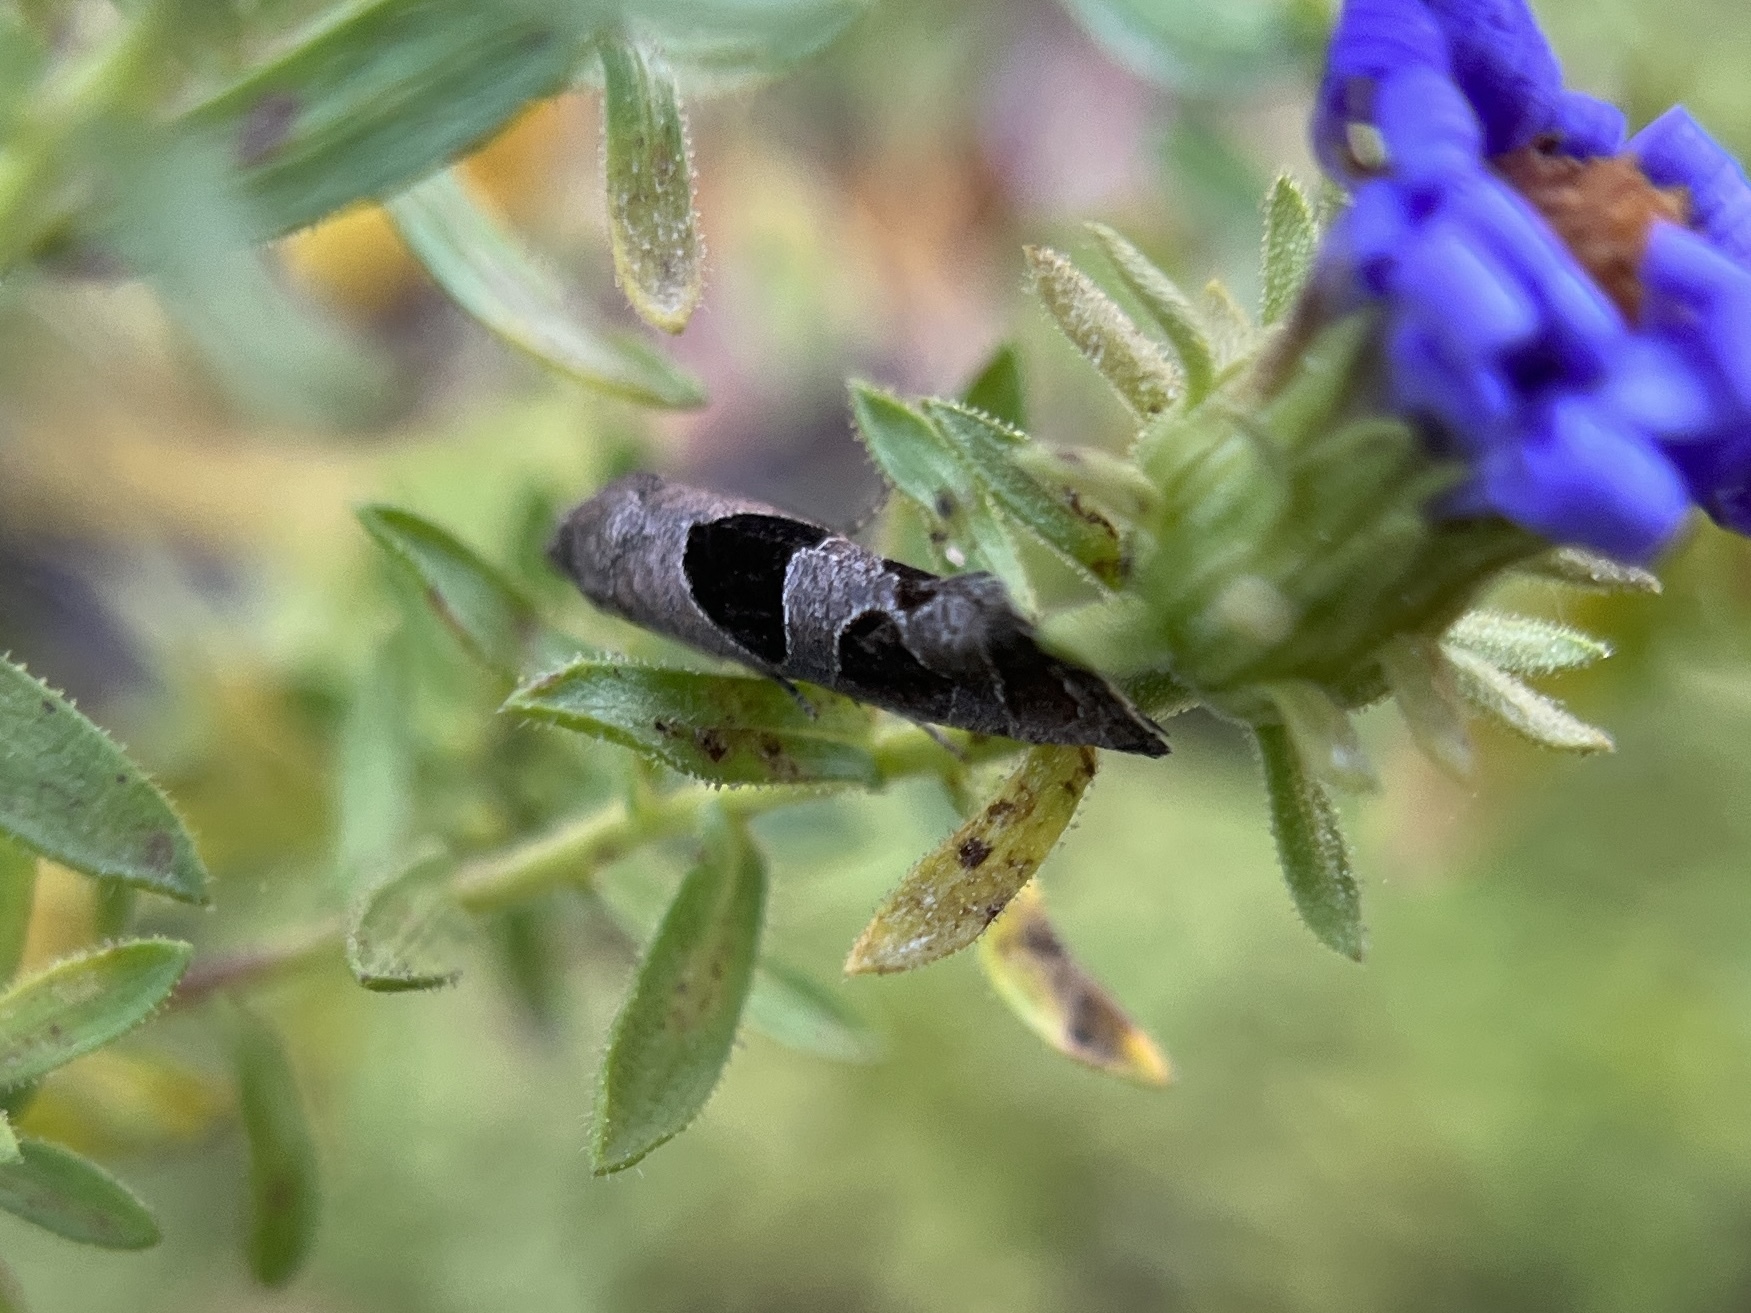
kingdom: Animalia
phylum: Arthropoda
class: Insecta
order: Lepidoptera
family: Tortricidae
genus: Pelochrista
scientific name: Pelochrista dorsisignatana
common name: Triangle-backed pelochrista moth
